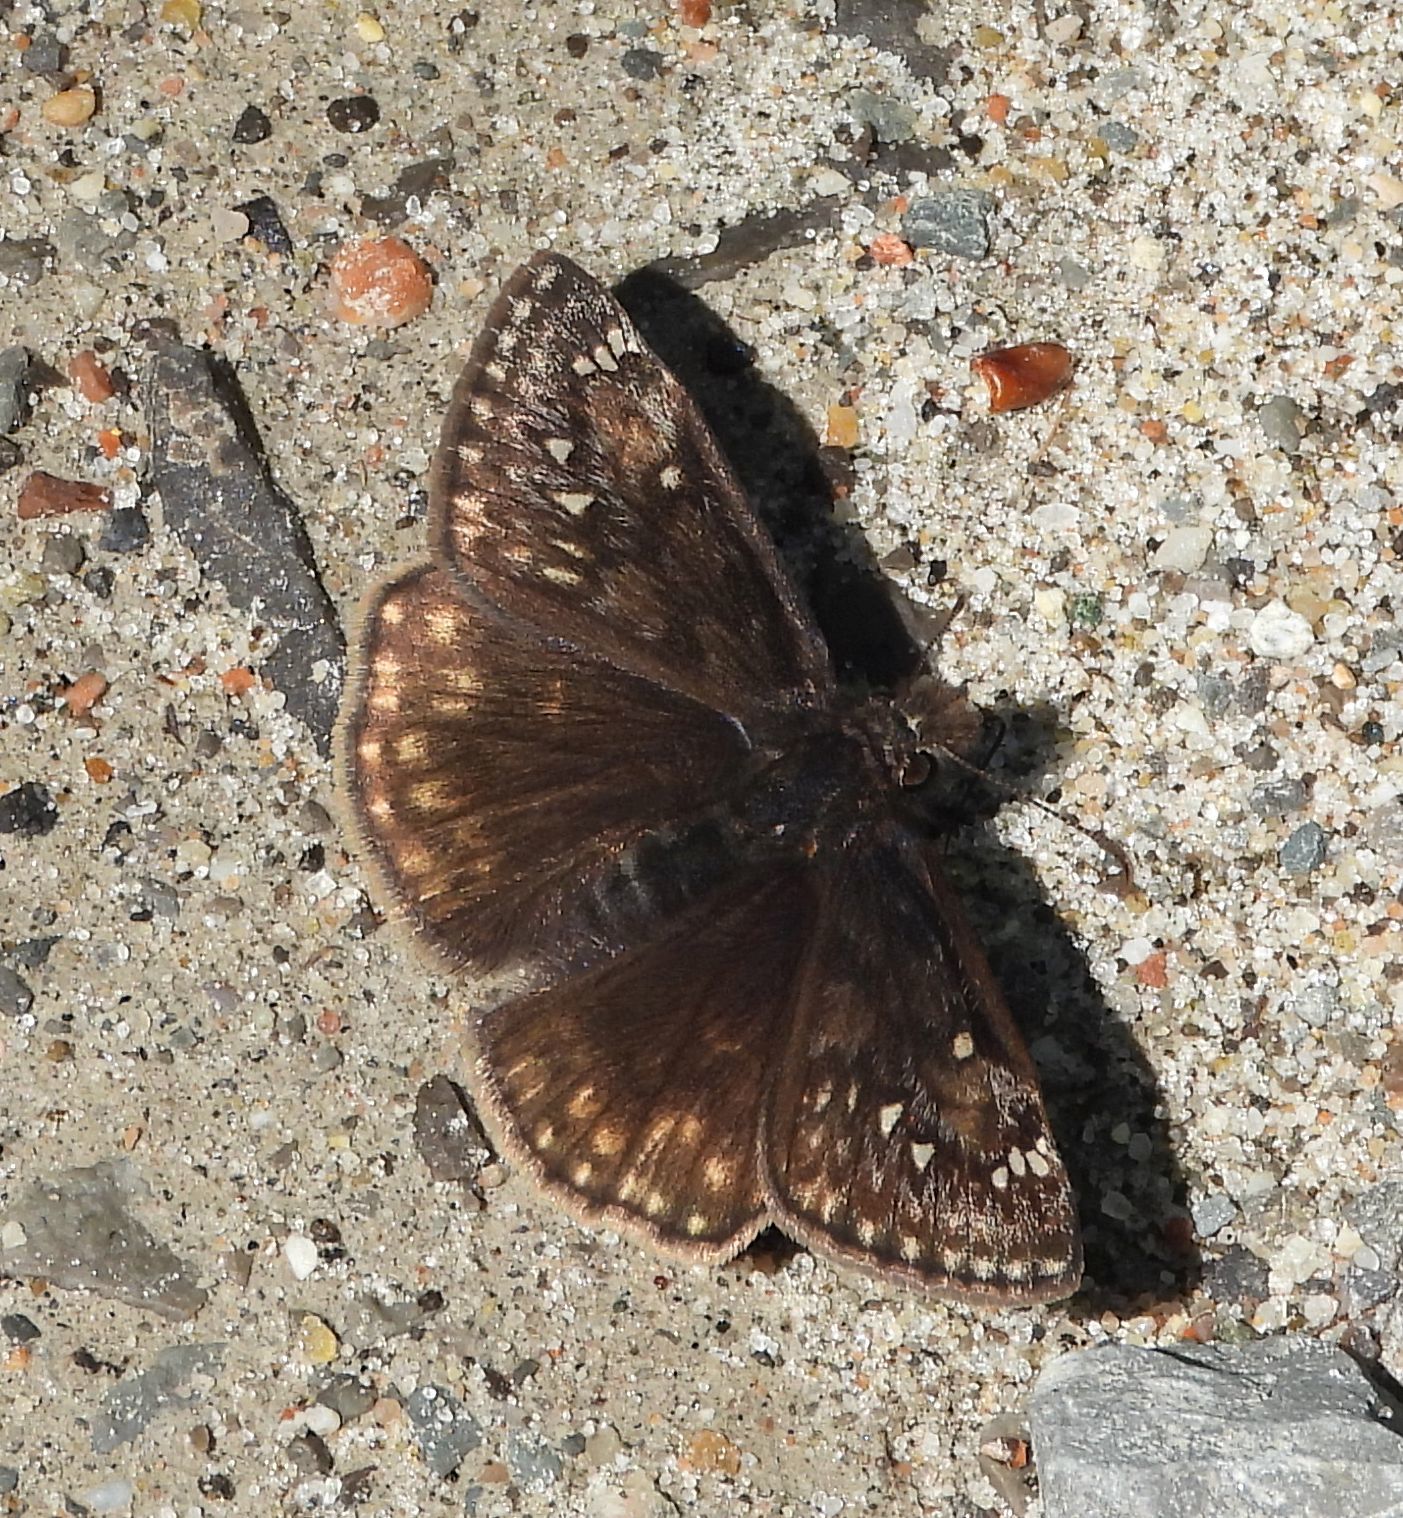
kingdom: Animalia
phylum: Arthropoda
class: Insecta
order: Lepidoptera
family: Hesperiidae
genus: Erynnis
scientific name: Erynnis juvenalis
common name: Juvenal's duskywing
